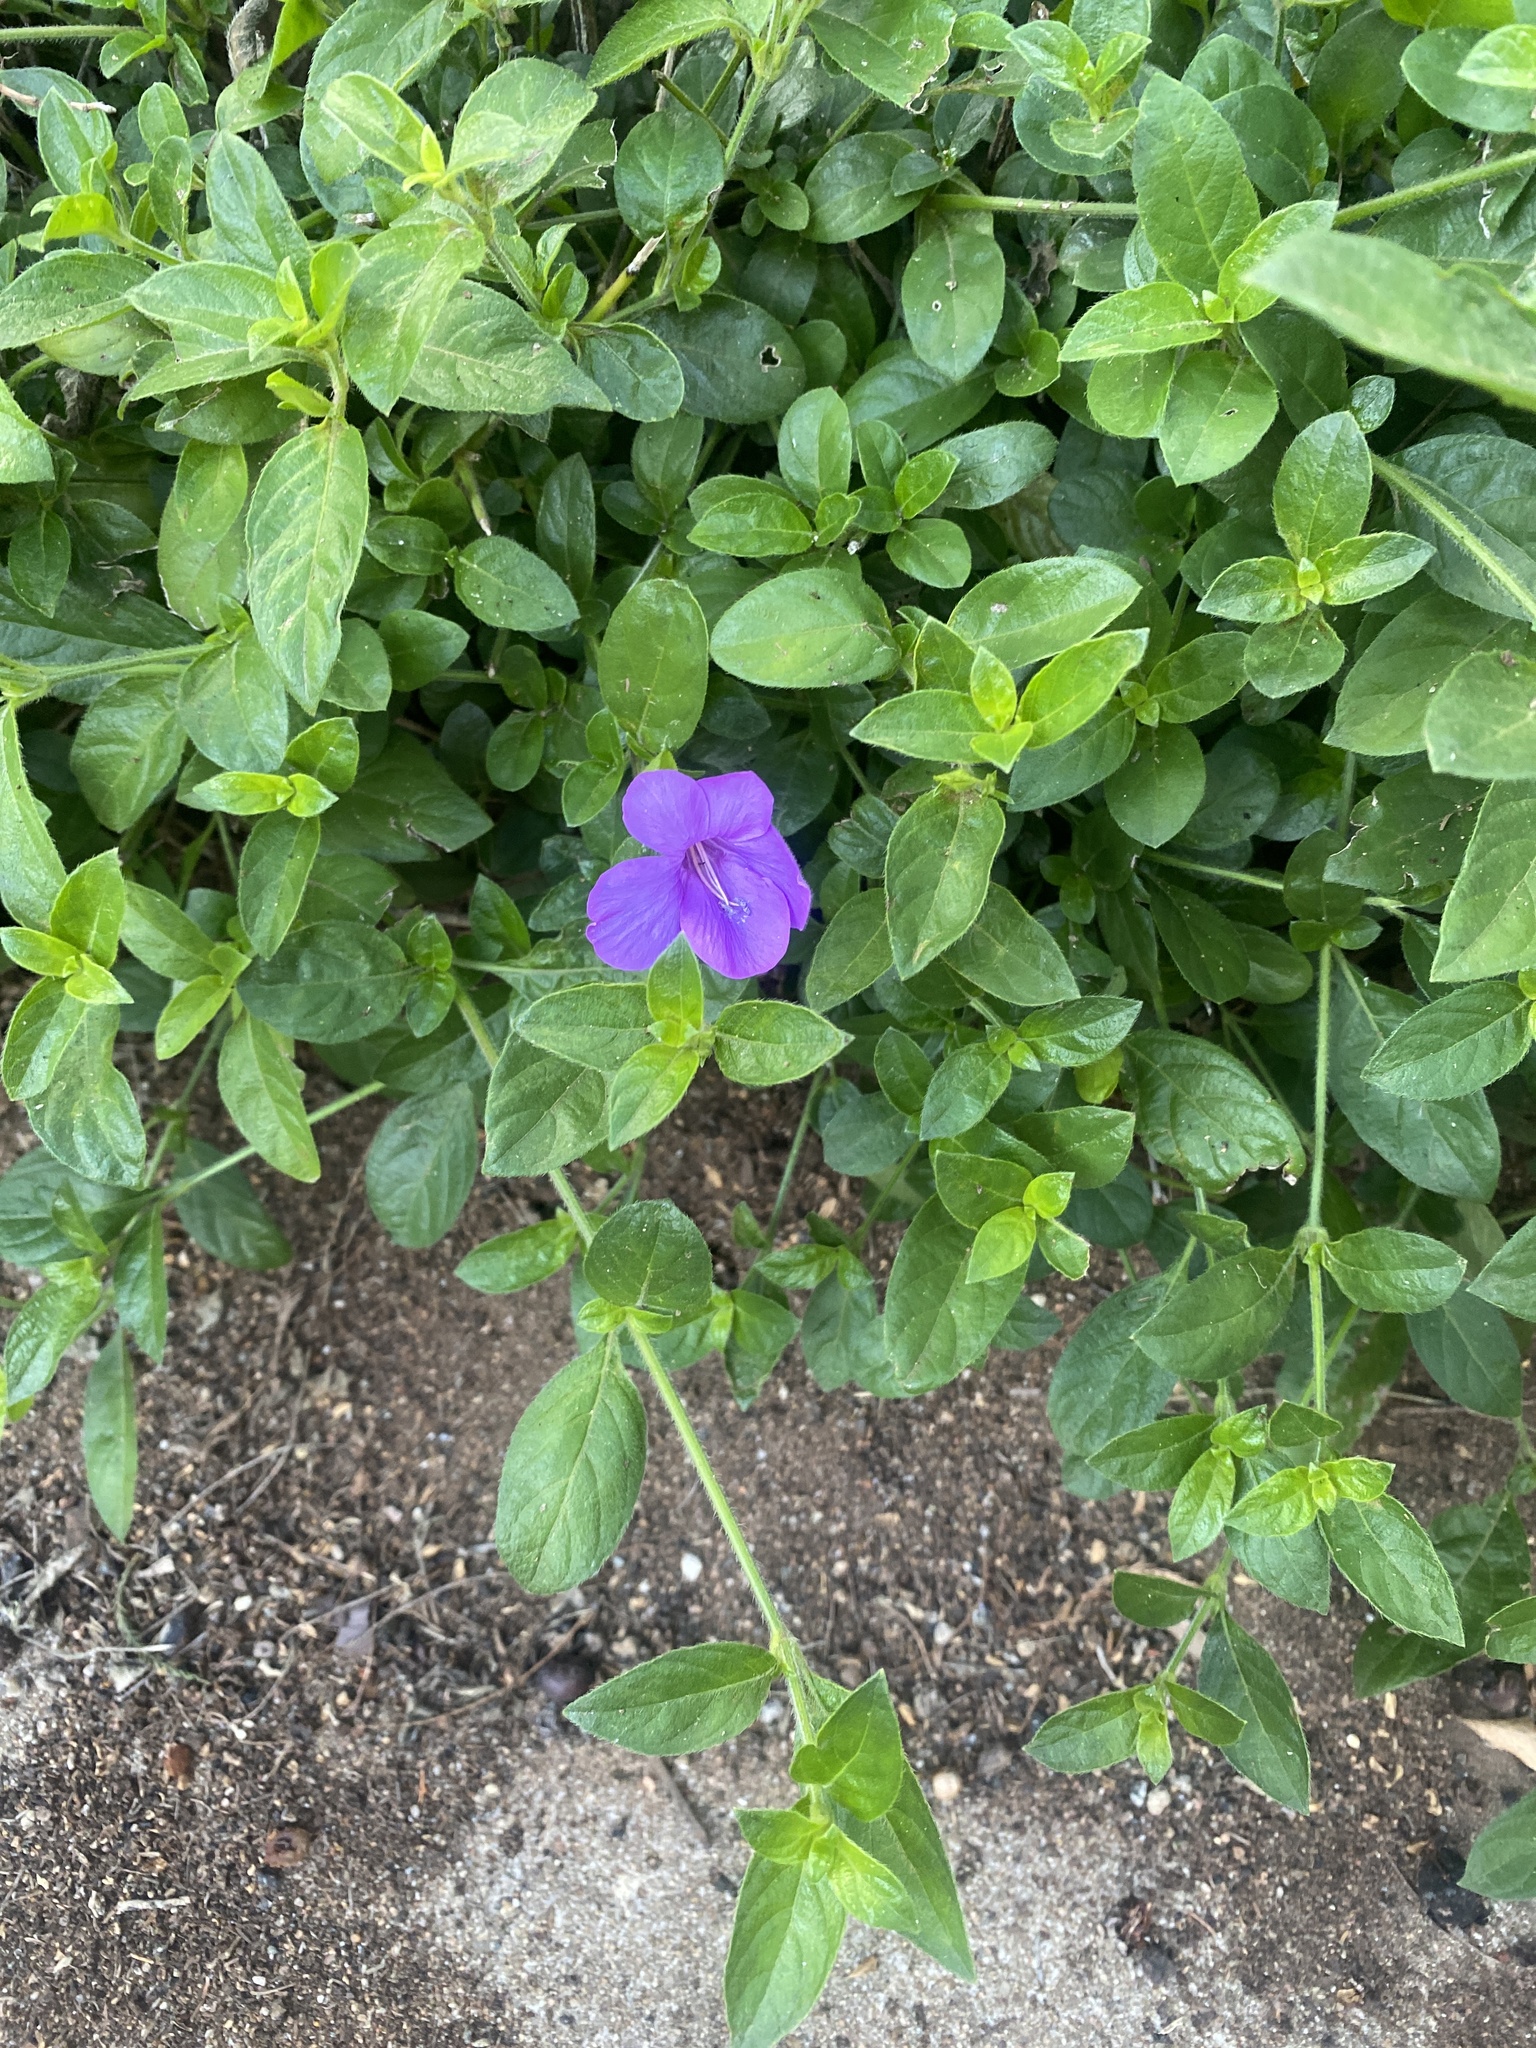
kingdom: Plantae
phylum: Tracheophyta
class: Magnoliopsida
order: Lamiales
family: Acanthaceae
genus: Barleria
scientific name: Barleria
